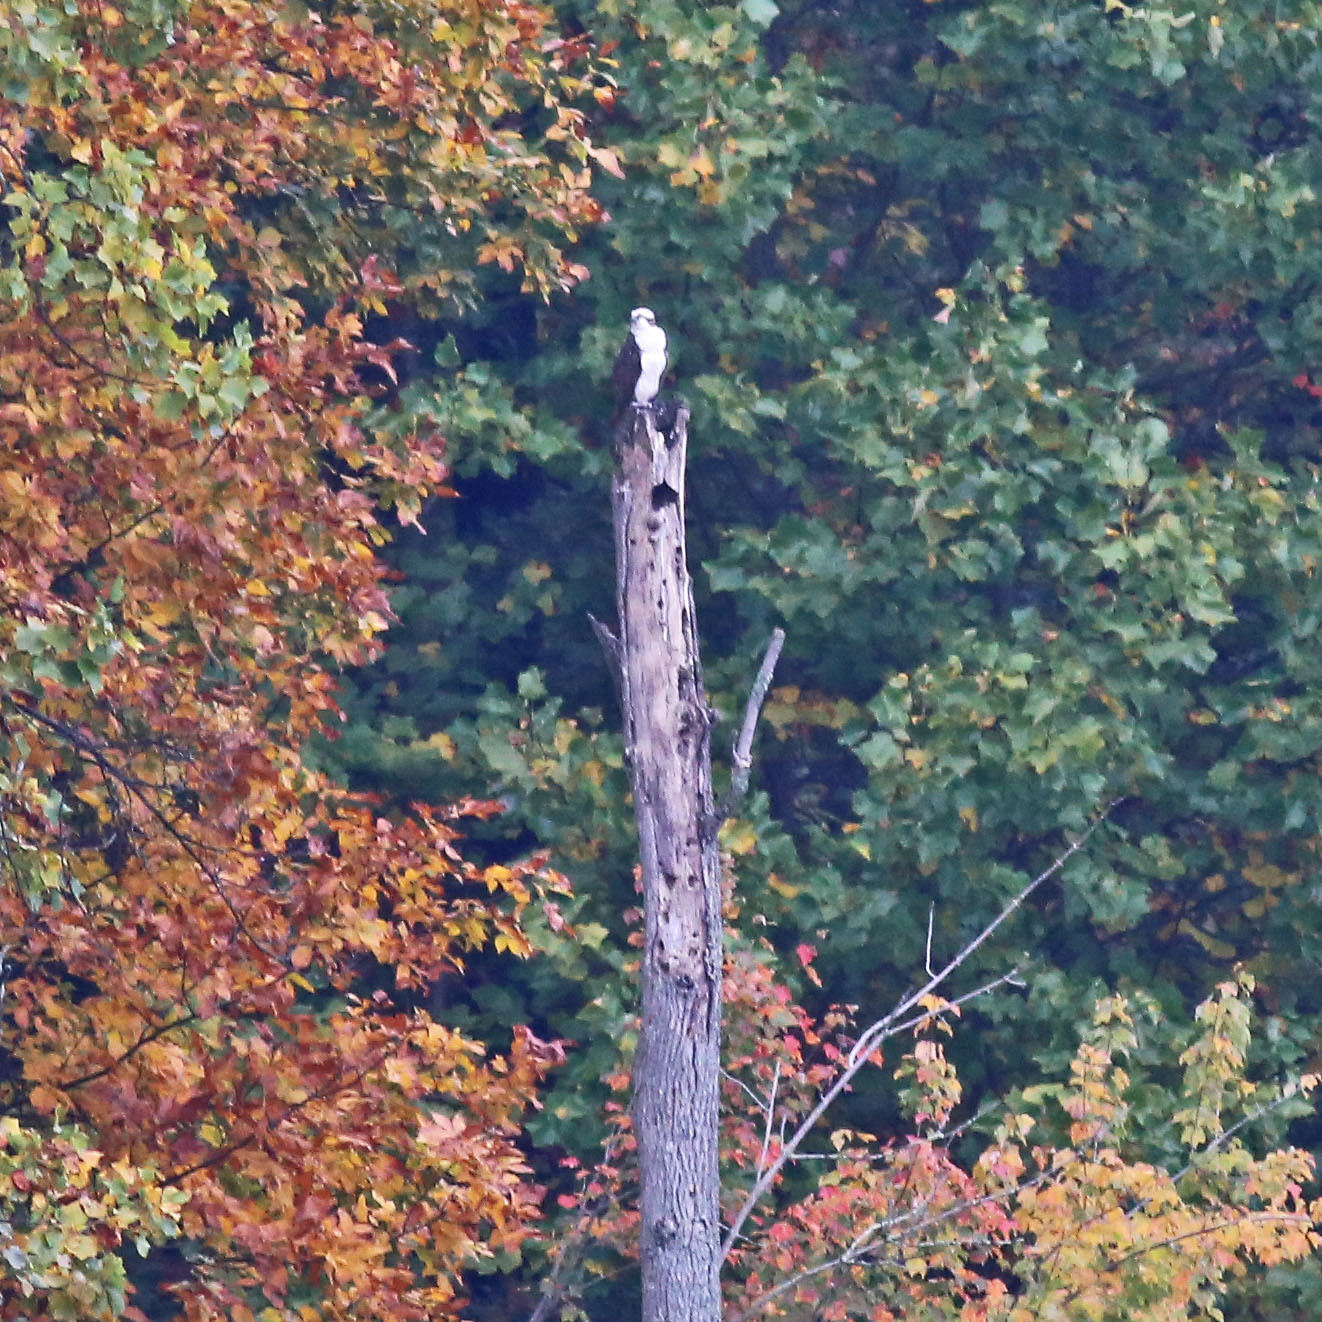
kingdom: Animalia
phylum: Chordata
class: Aves
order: Accipitriformes
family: Pandionidae
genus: Pandion
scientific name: Pandion haliaetus
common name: Osprey
